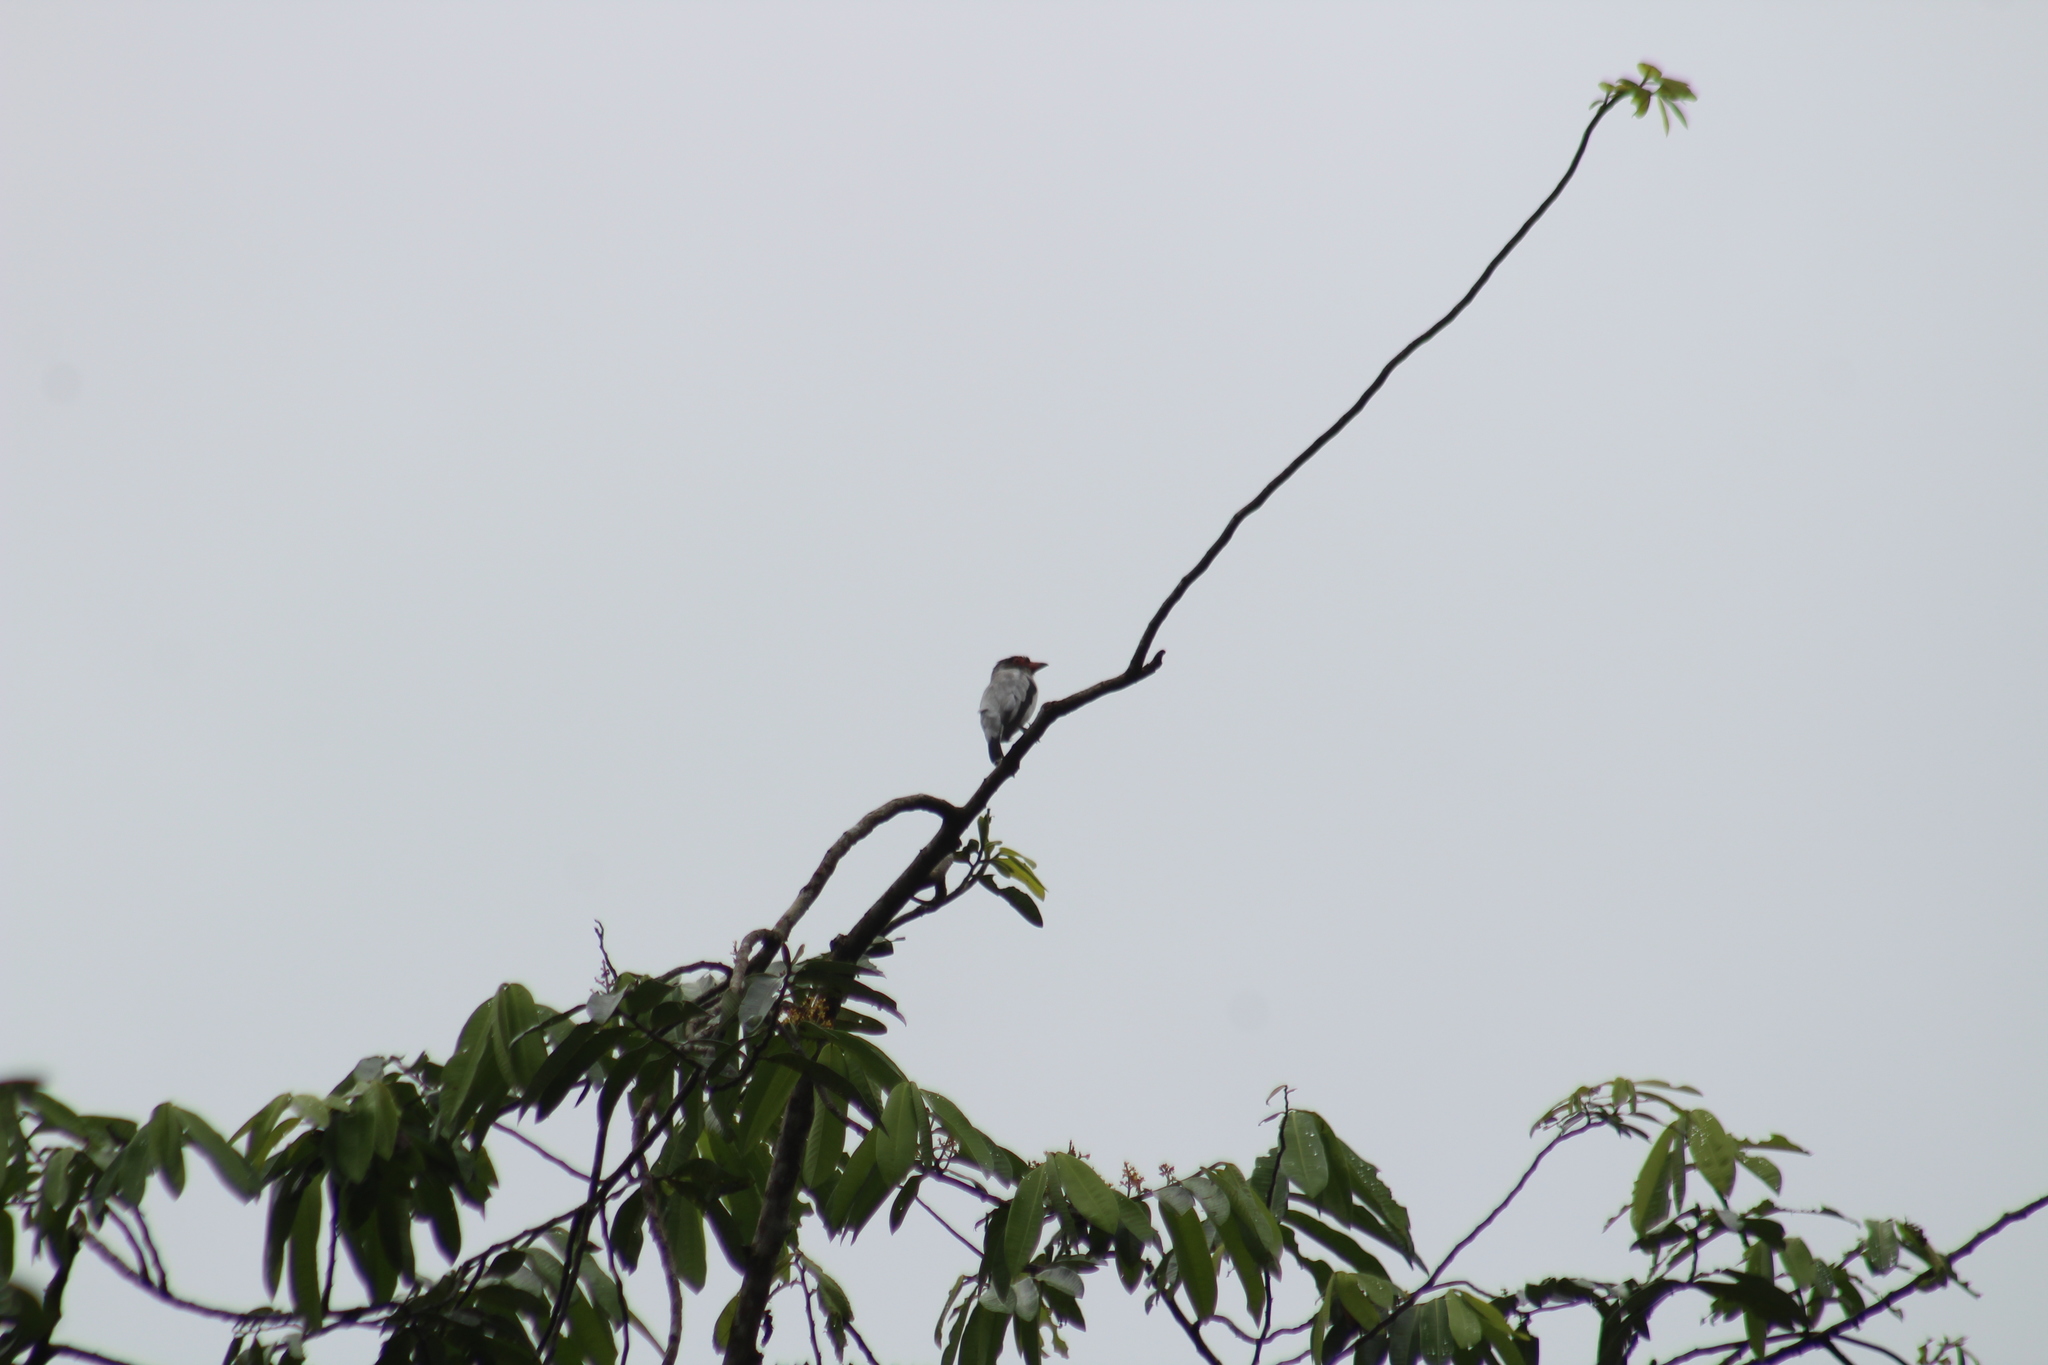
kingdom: Animalia
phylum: Chordata
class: Aves
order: Passeriformes
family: Cotingidae
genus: Tityra
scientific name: Tityra semifasciata
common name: Masked tityra
